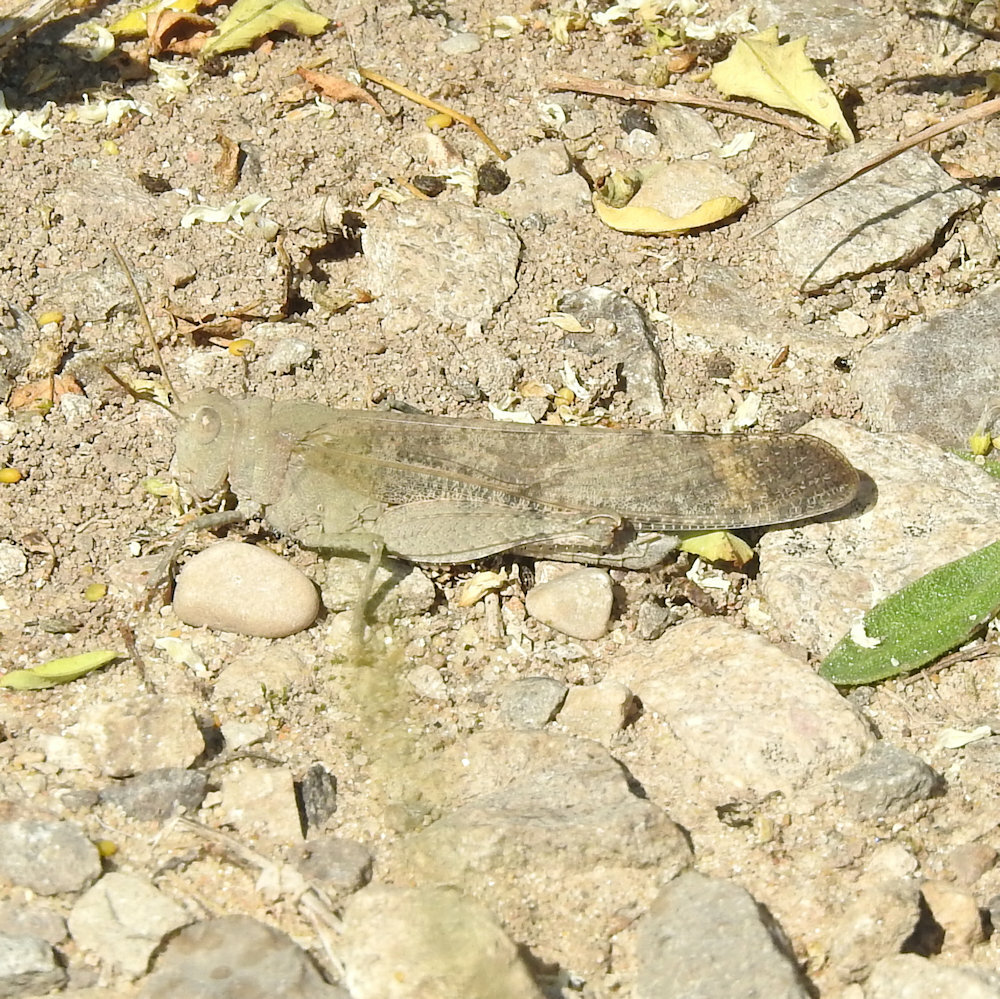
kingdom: Animalia
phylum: Arthropoda
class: Insecta
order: Orthoptera
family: Acrididae
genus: Dissosteira
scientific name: Dissosteira carolina
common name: Carolina grasshopper
